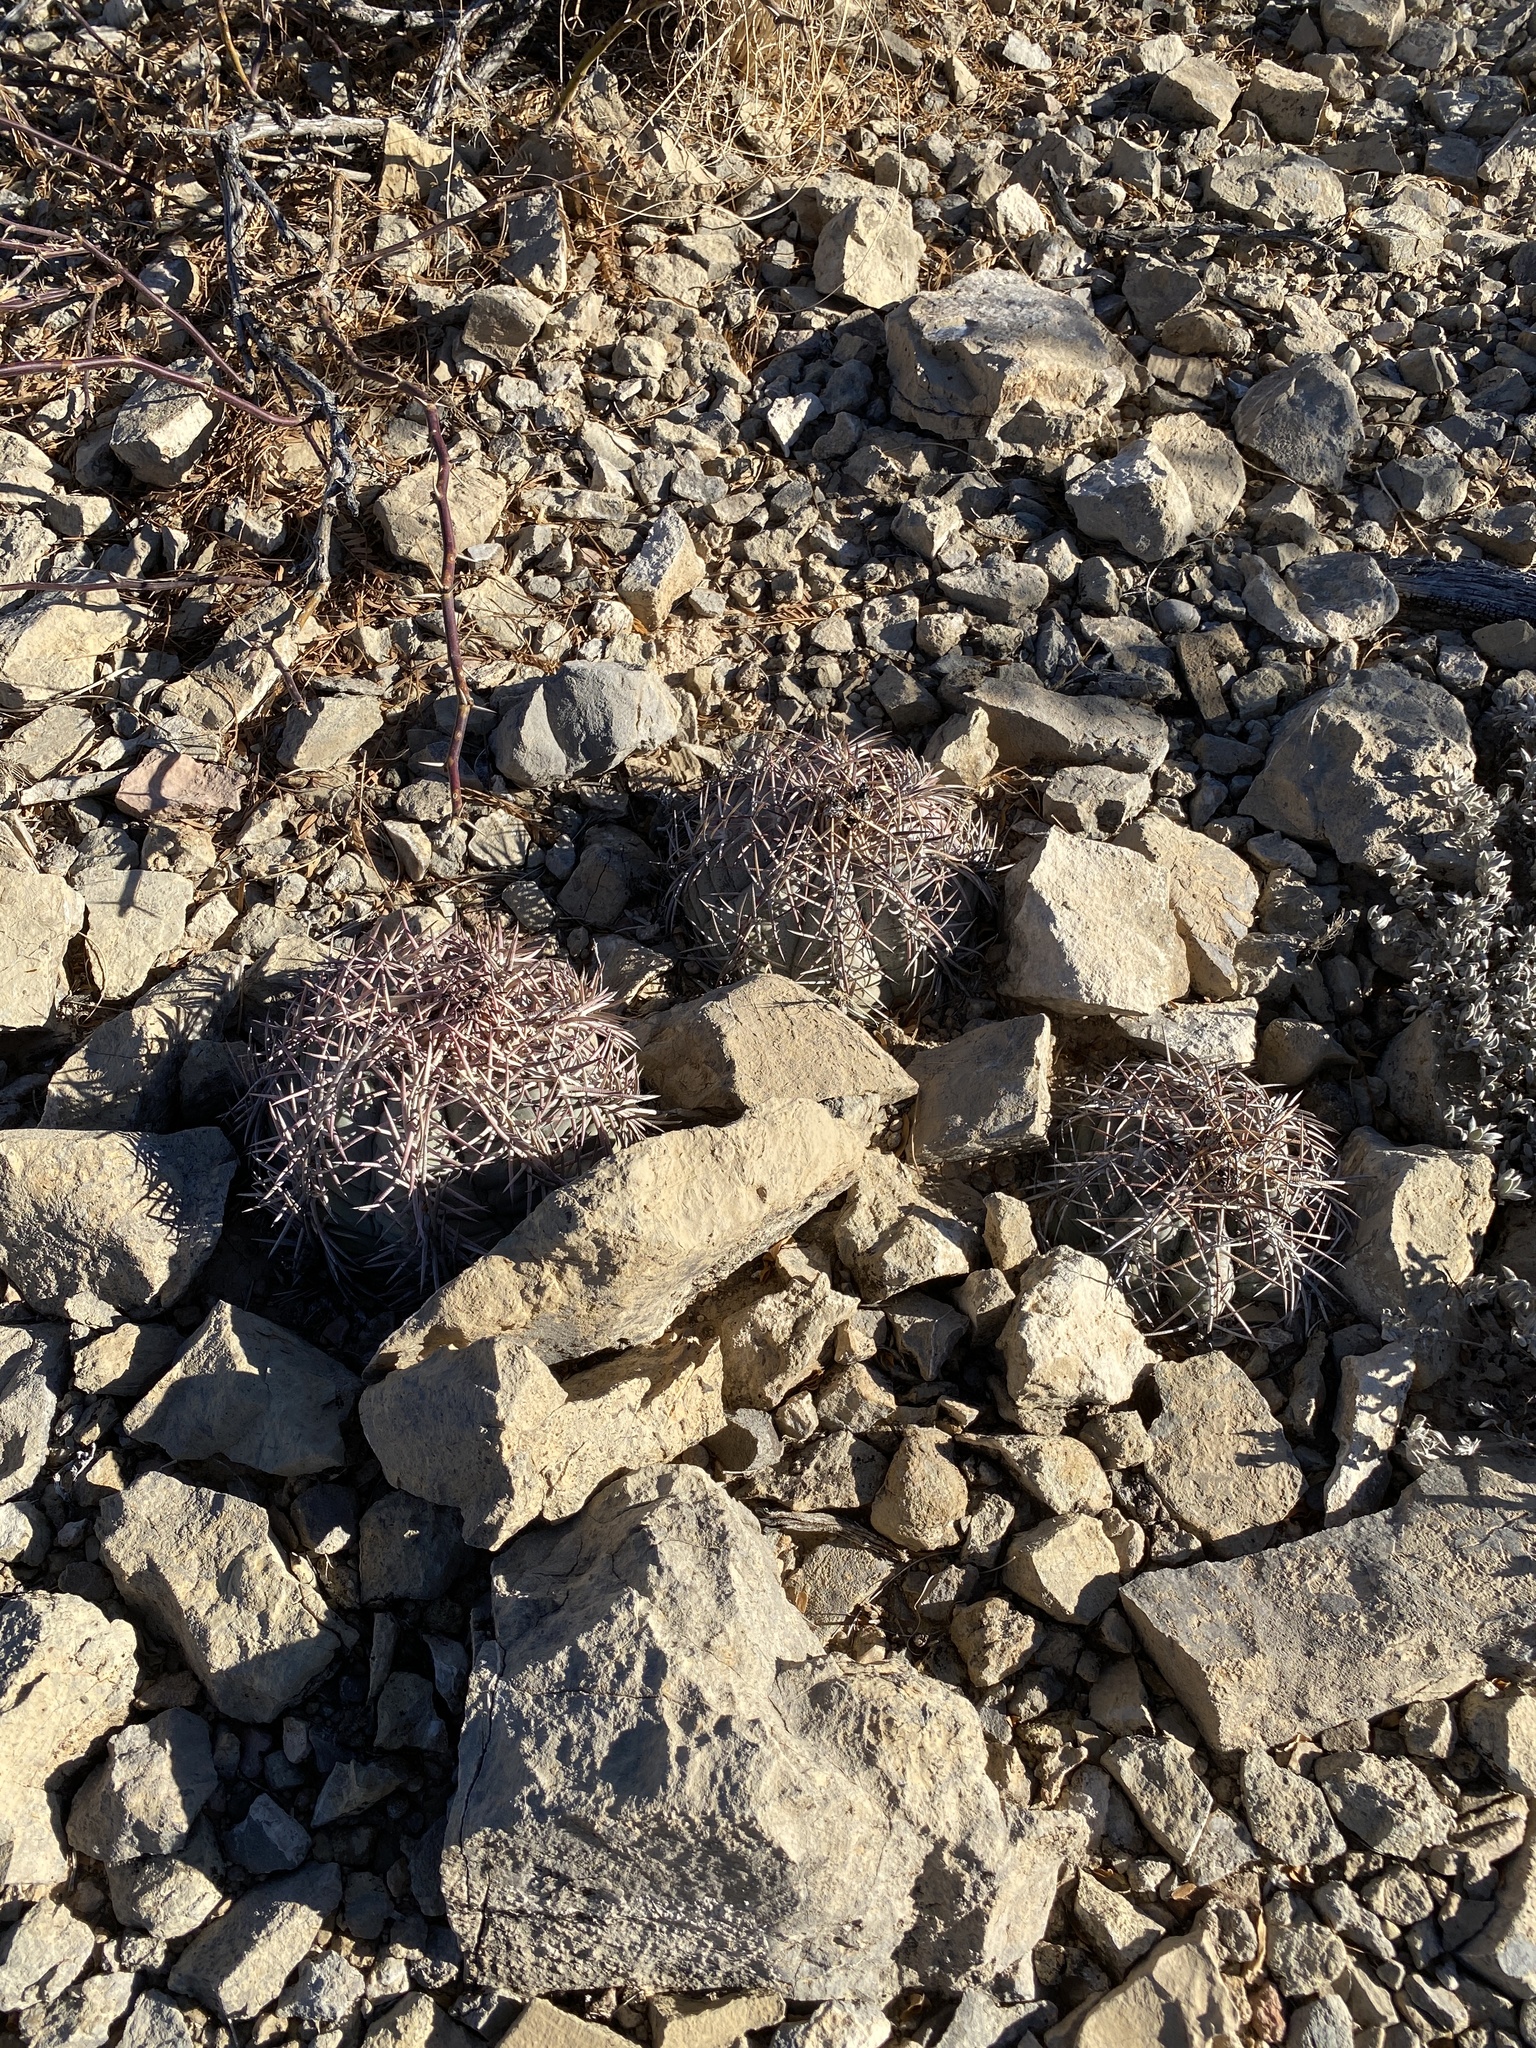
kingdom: Plantae
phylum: Tracheophyta
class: Magnoliopsida
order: Caryophyllales
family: Cactaceae
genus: Echinocactus
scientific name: Echinocactus horizonthalonius
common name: Devilshead
